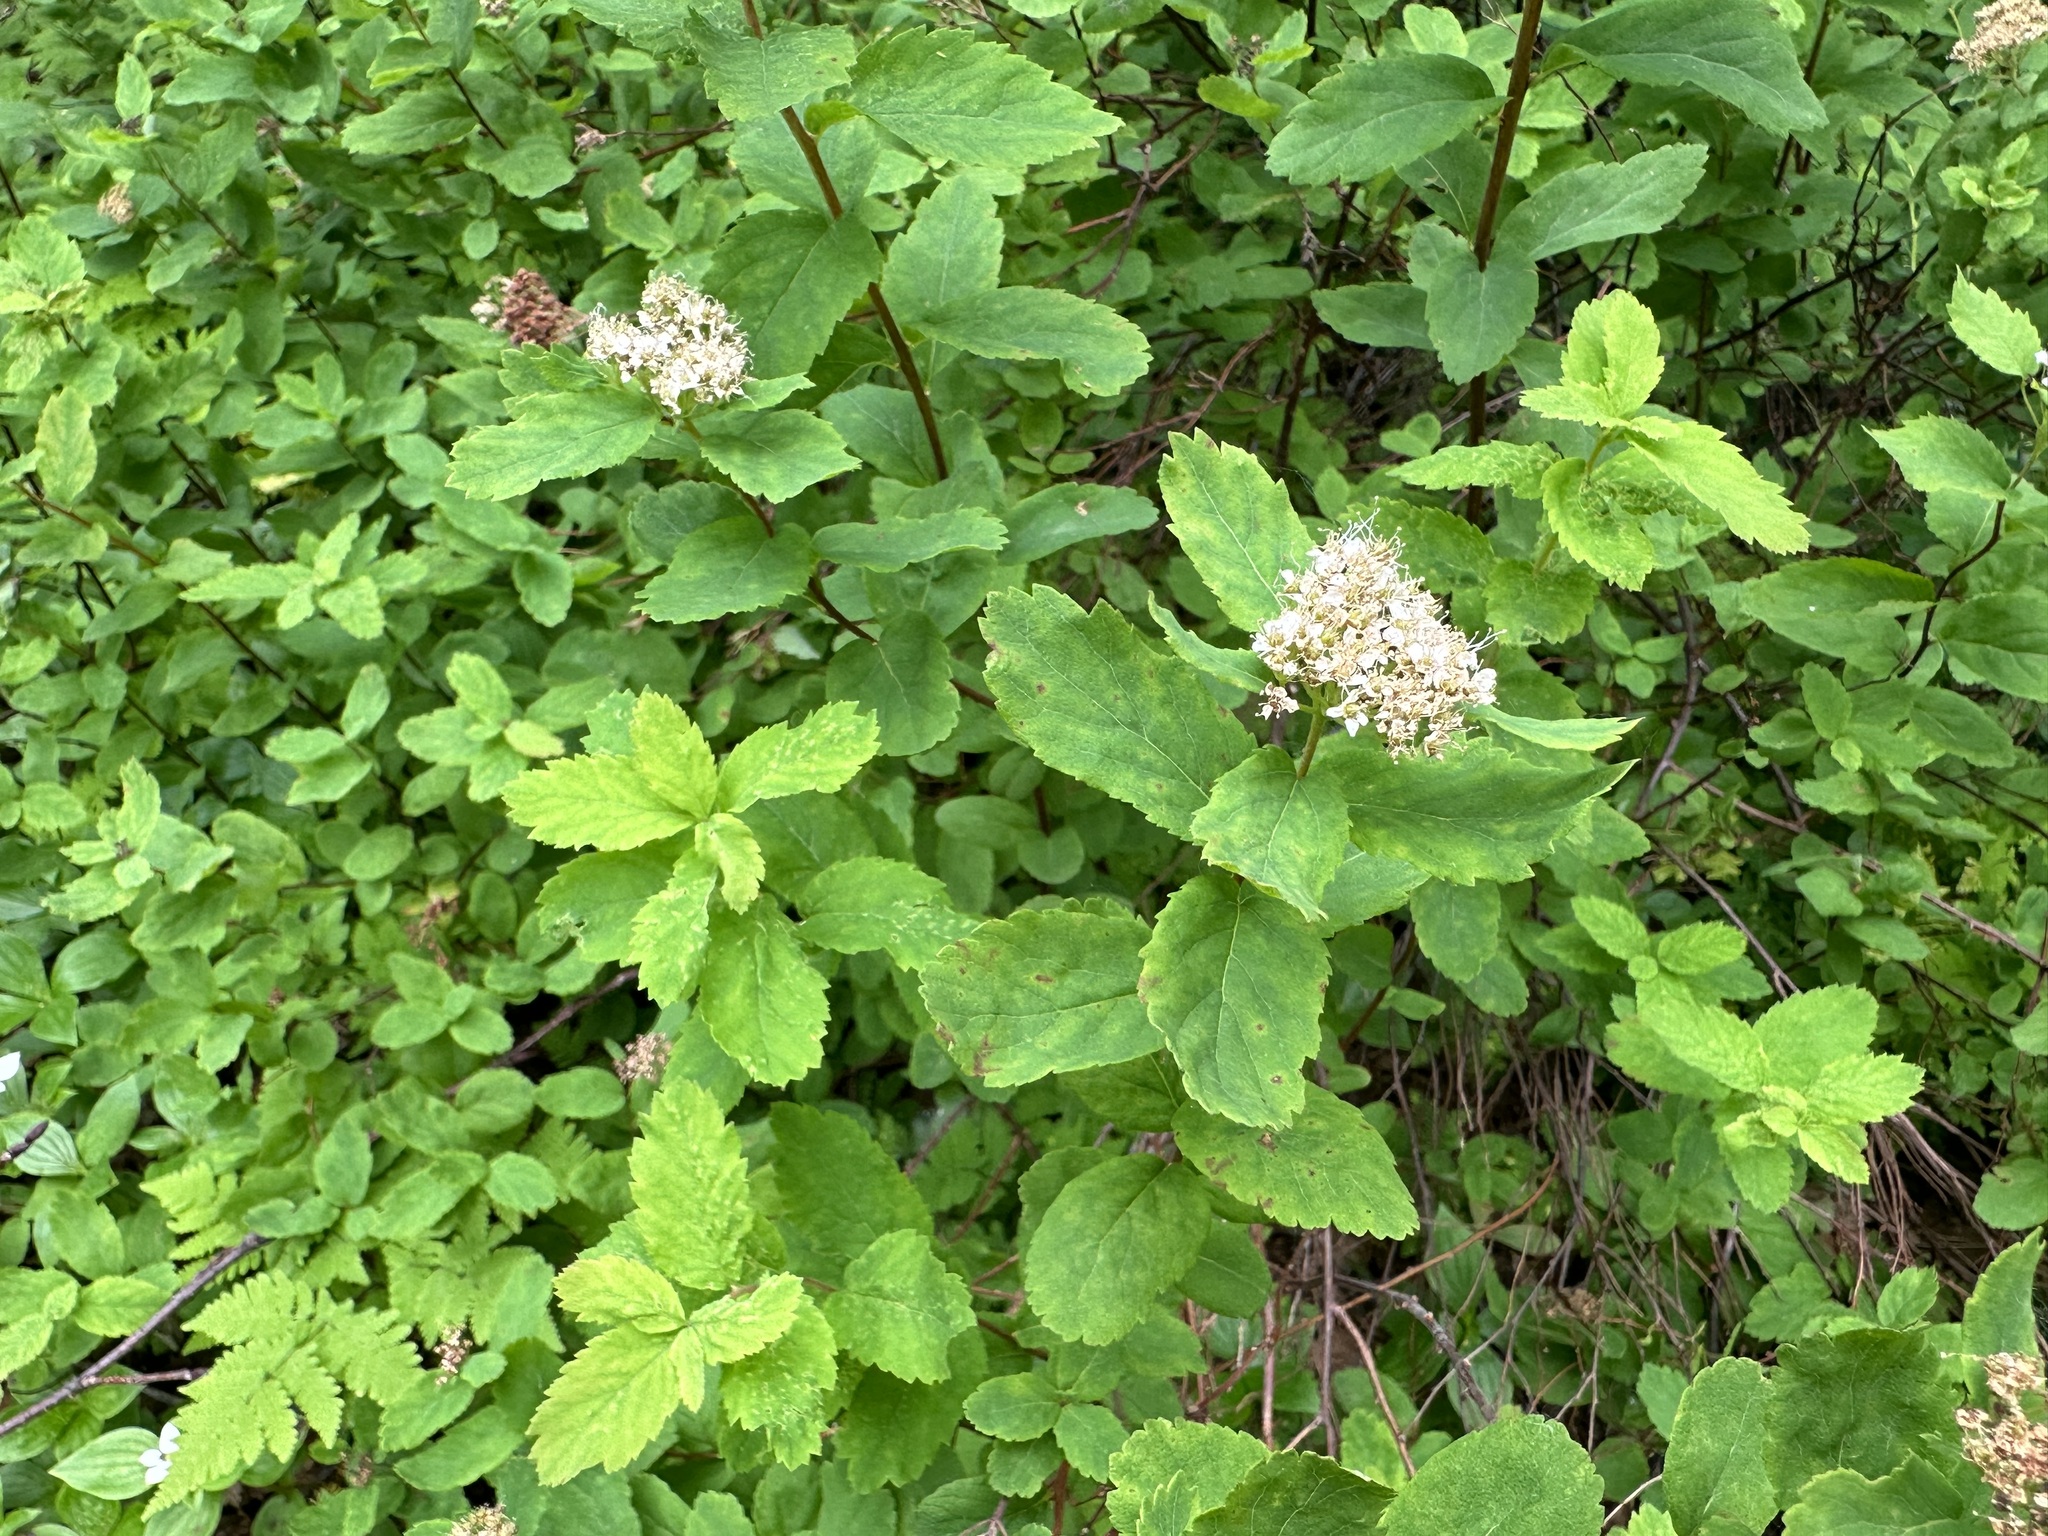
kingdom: Plantae
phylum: Tracheophyta
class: Magnoliopsida
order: Rosales
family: Rosaceae
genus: Spiraea
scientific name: Spiraea stevenii
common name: Steven's meadowsweet
